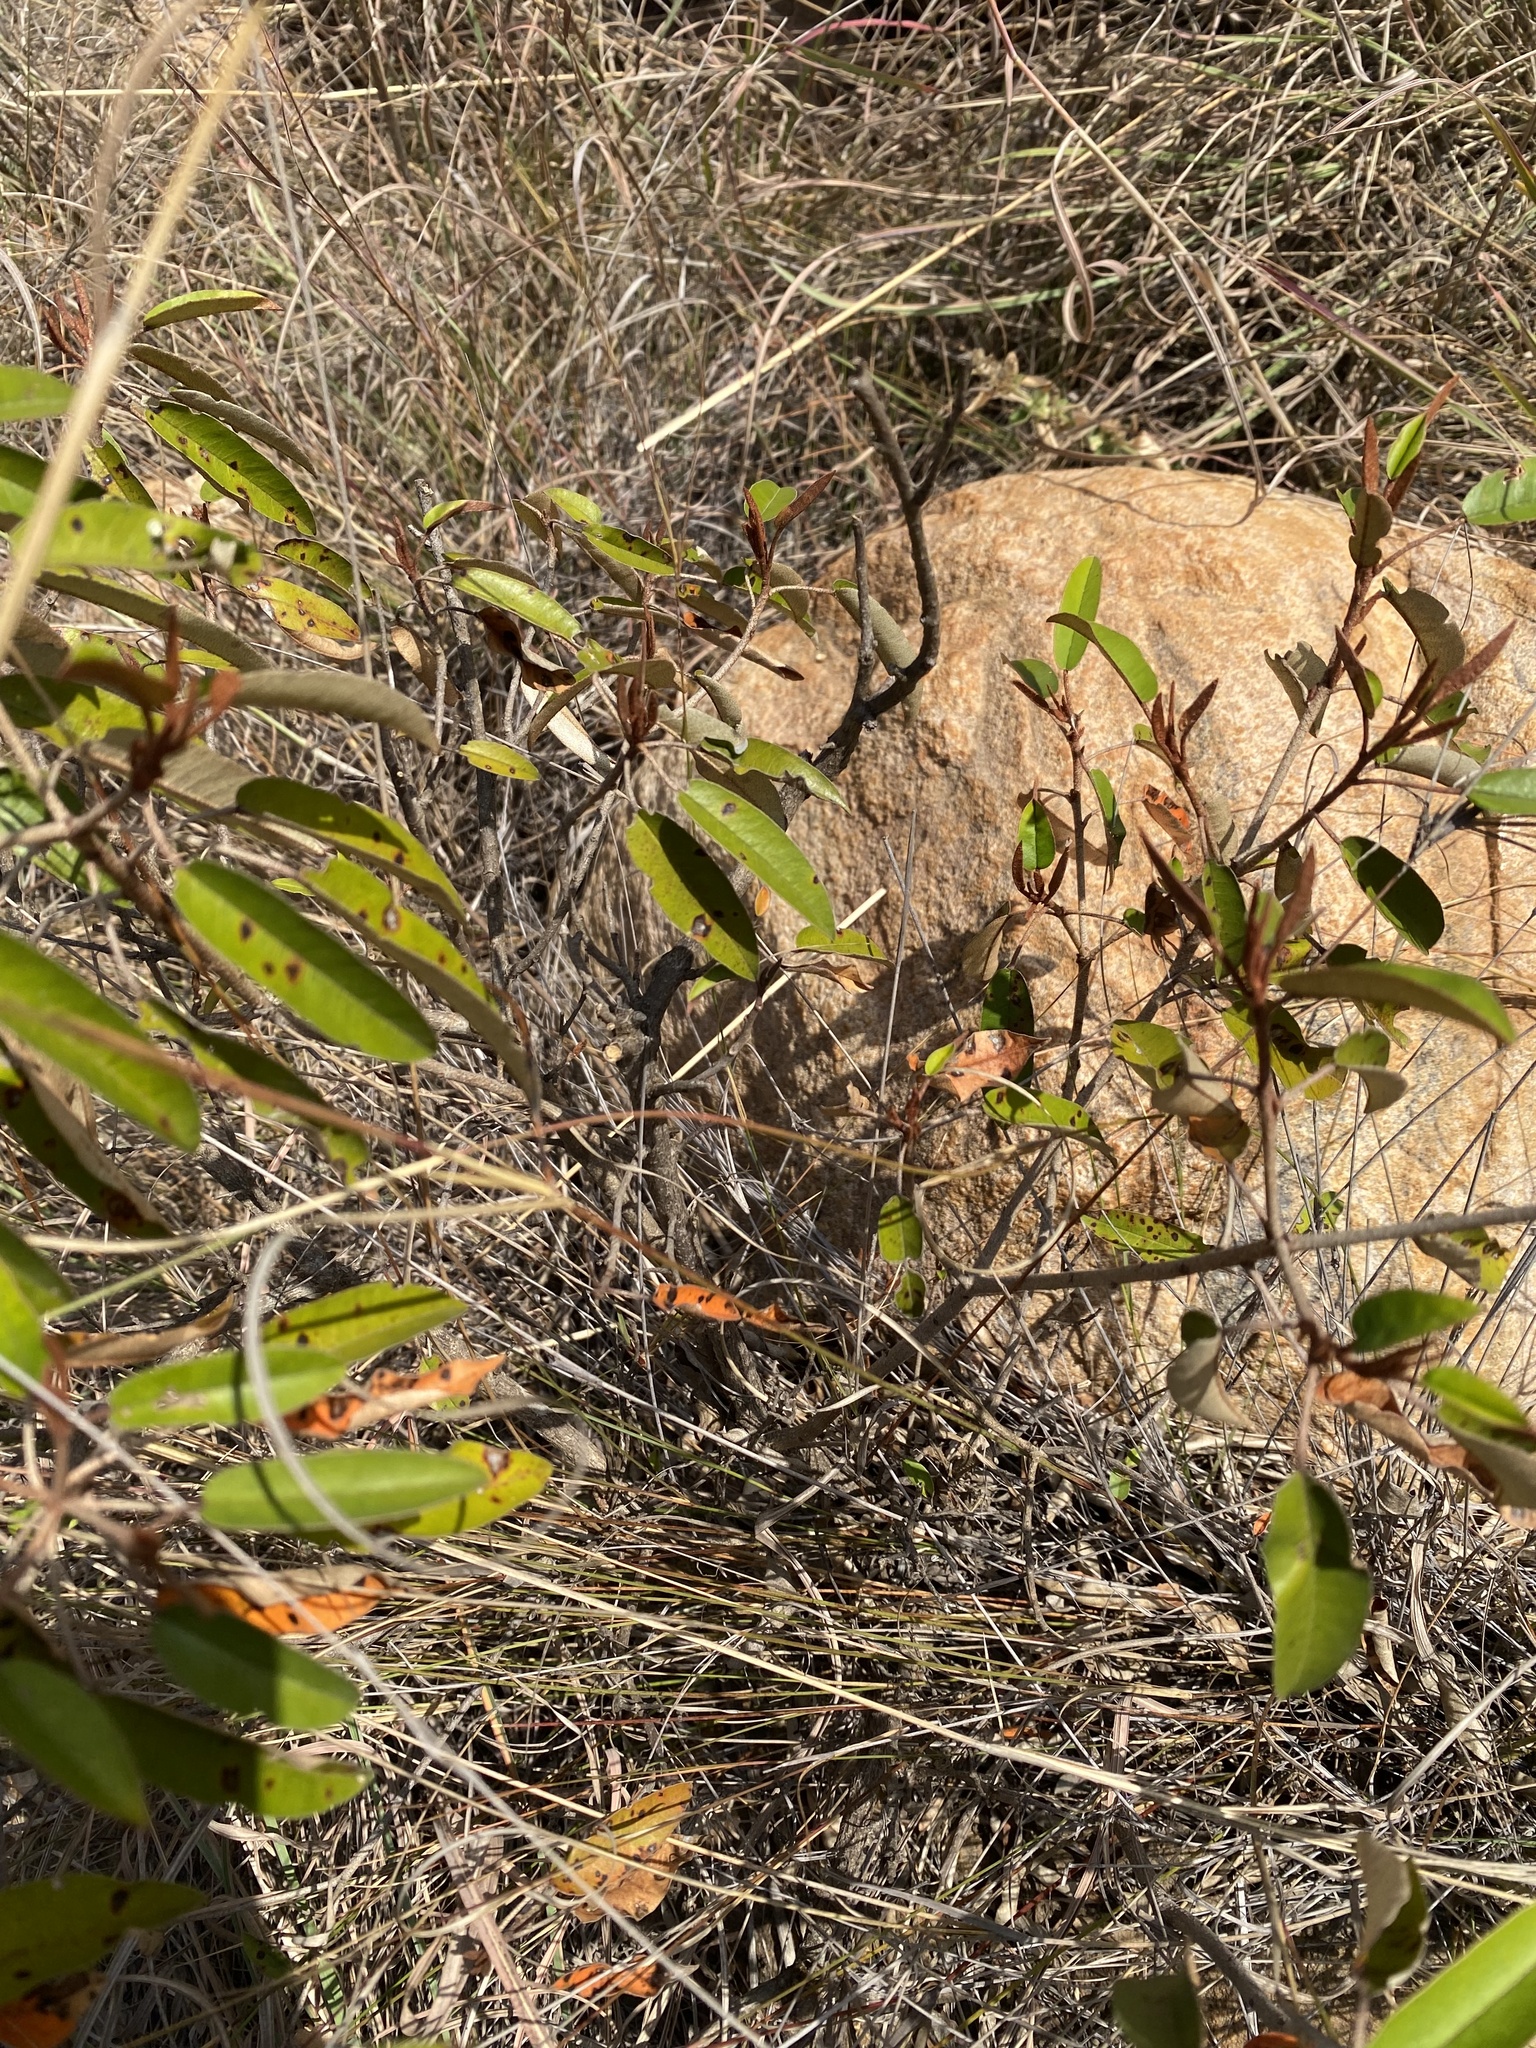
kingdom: Plantae
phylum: Tracheophyta
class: Magnoliopsida
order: Malpighiales
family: Euphorbiaceae
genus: Croton
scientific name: Croton gratissimus
